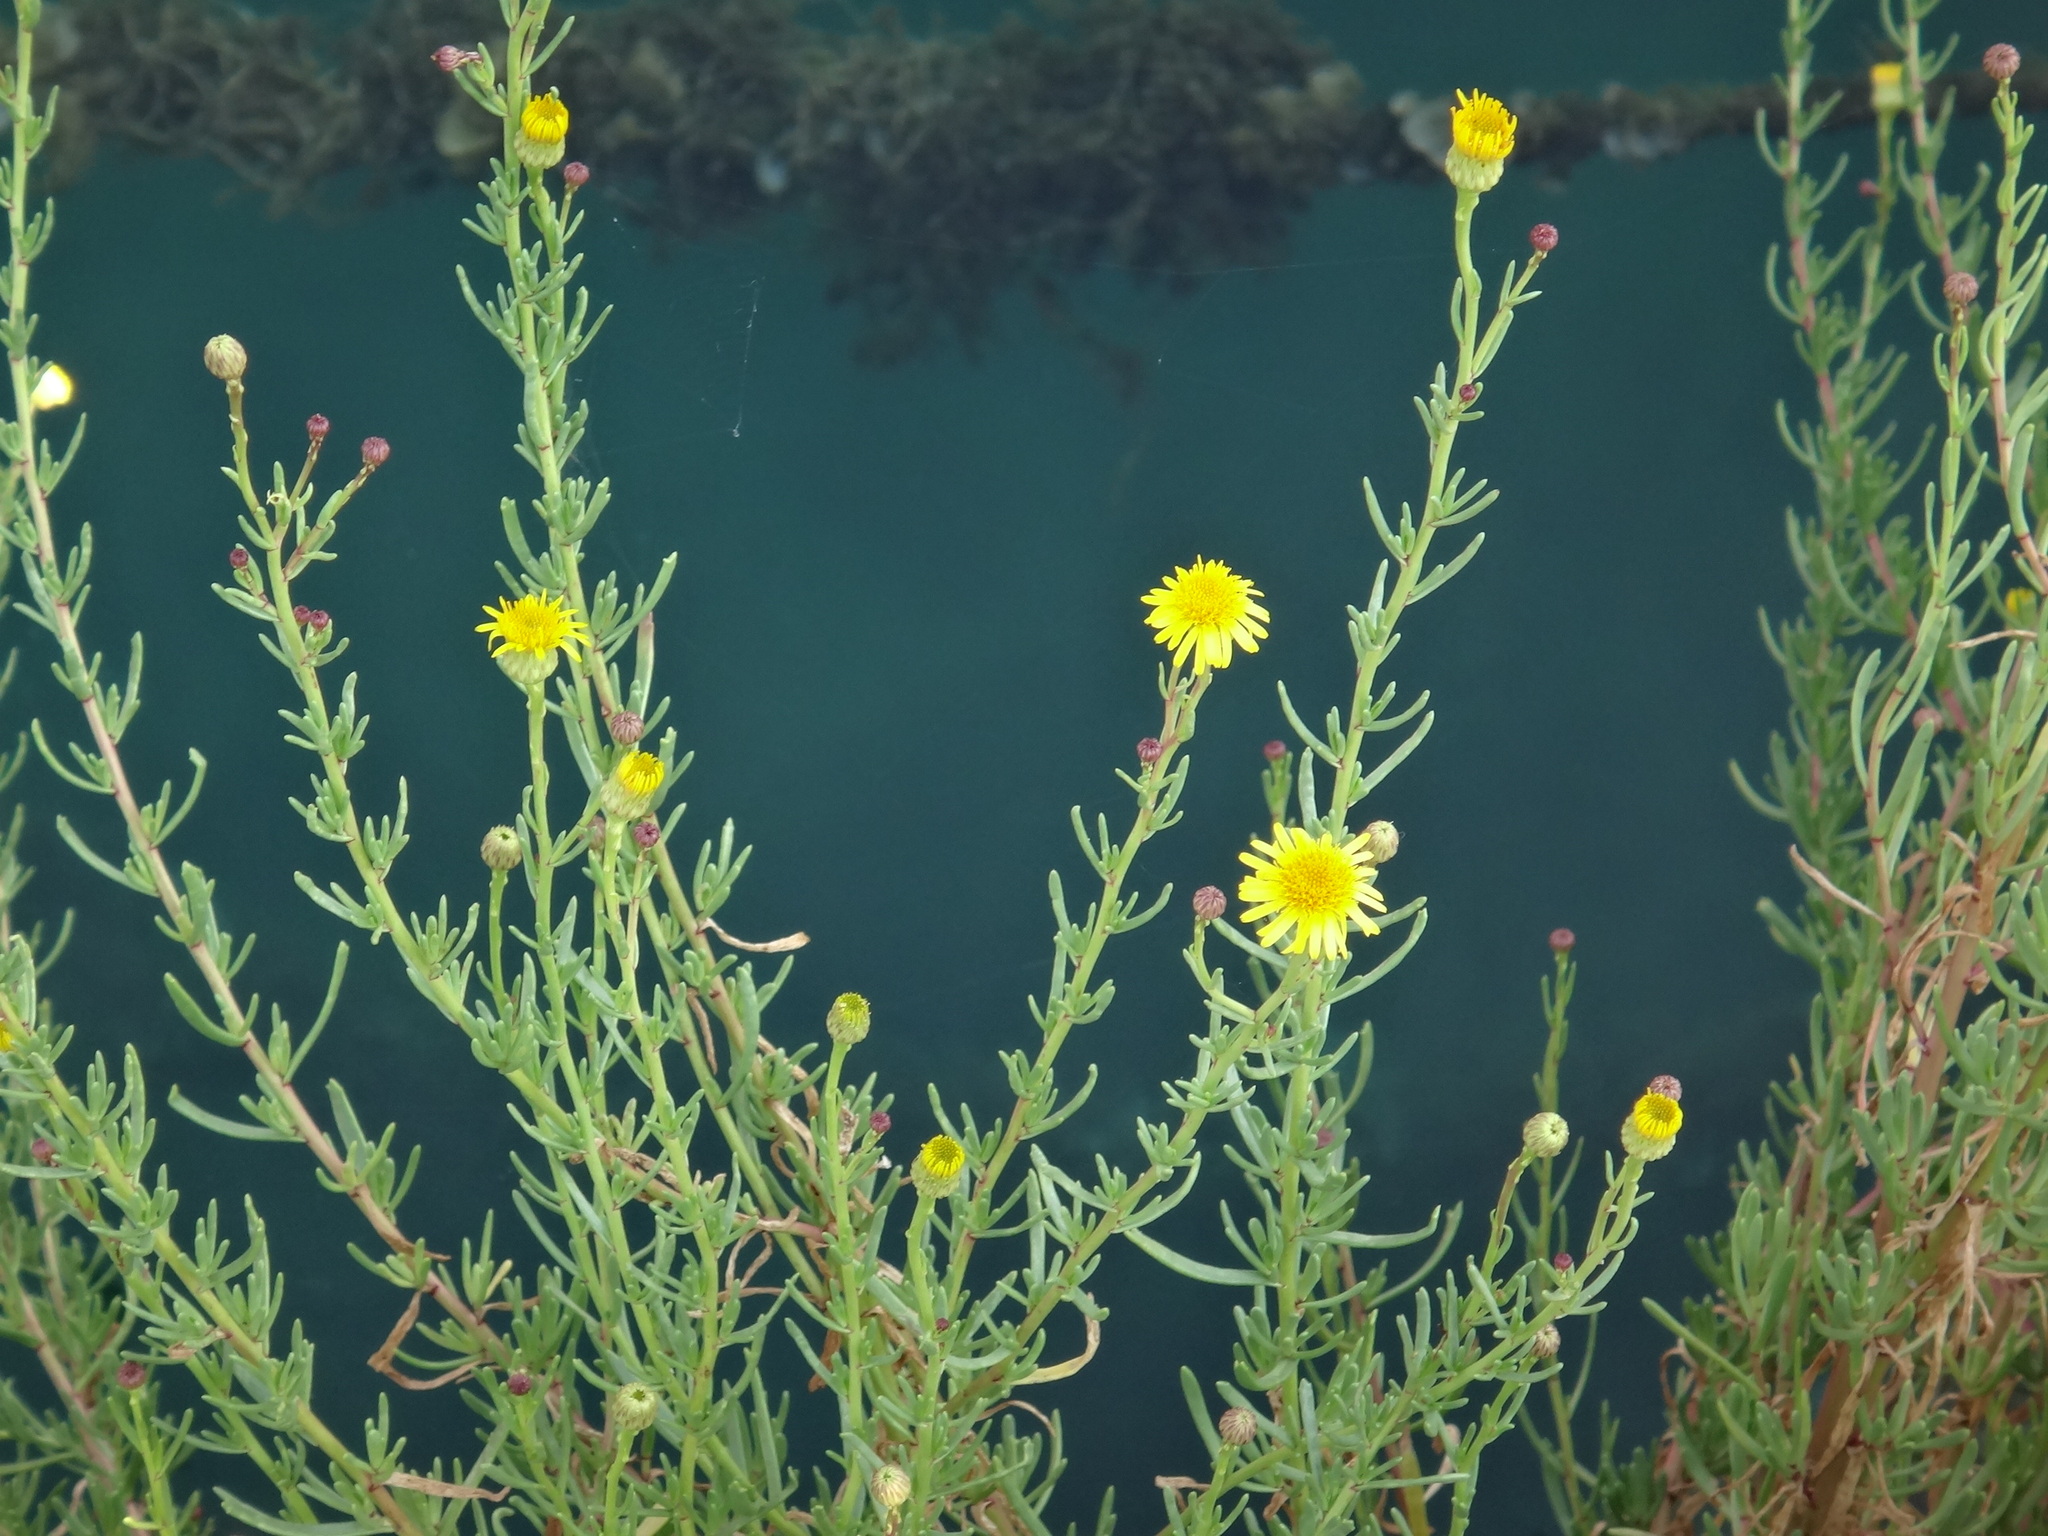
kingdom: Plantae
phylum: Tracheophyta
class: Magnoliopsida
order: Asterales
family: Asteraceae
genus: Limbarda
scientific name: Limbarda crithmoides
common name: Golden samphire
